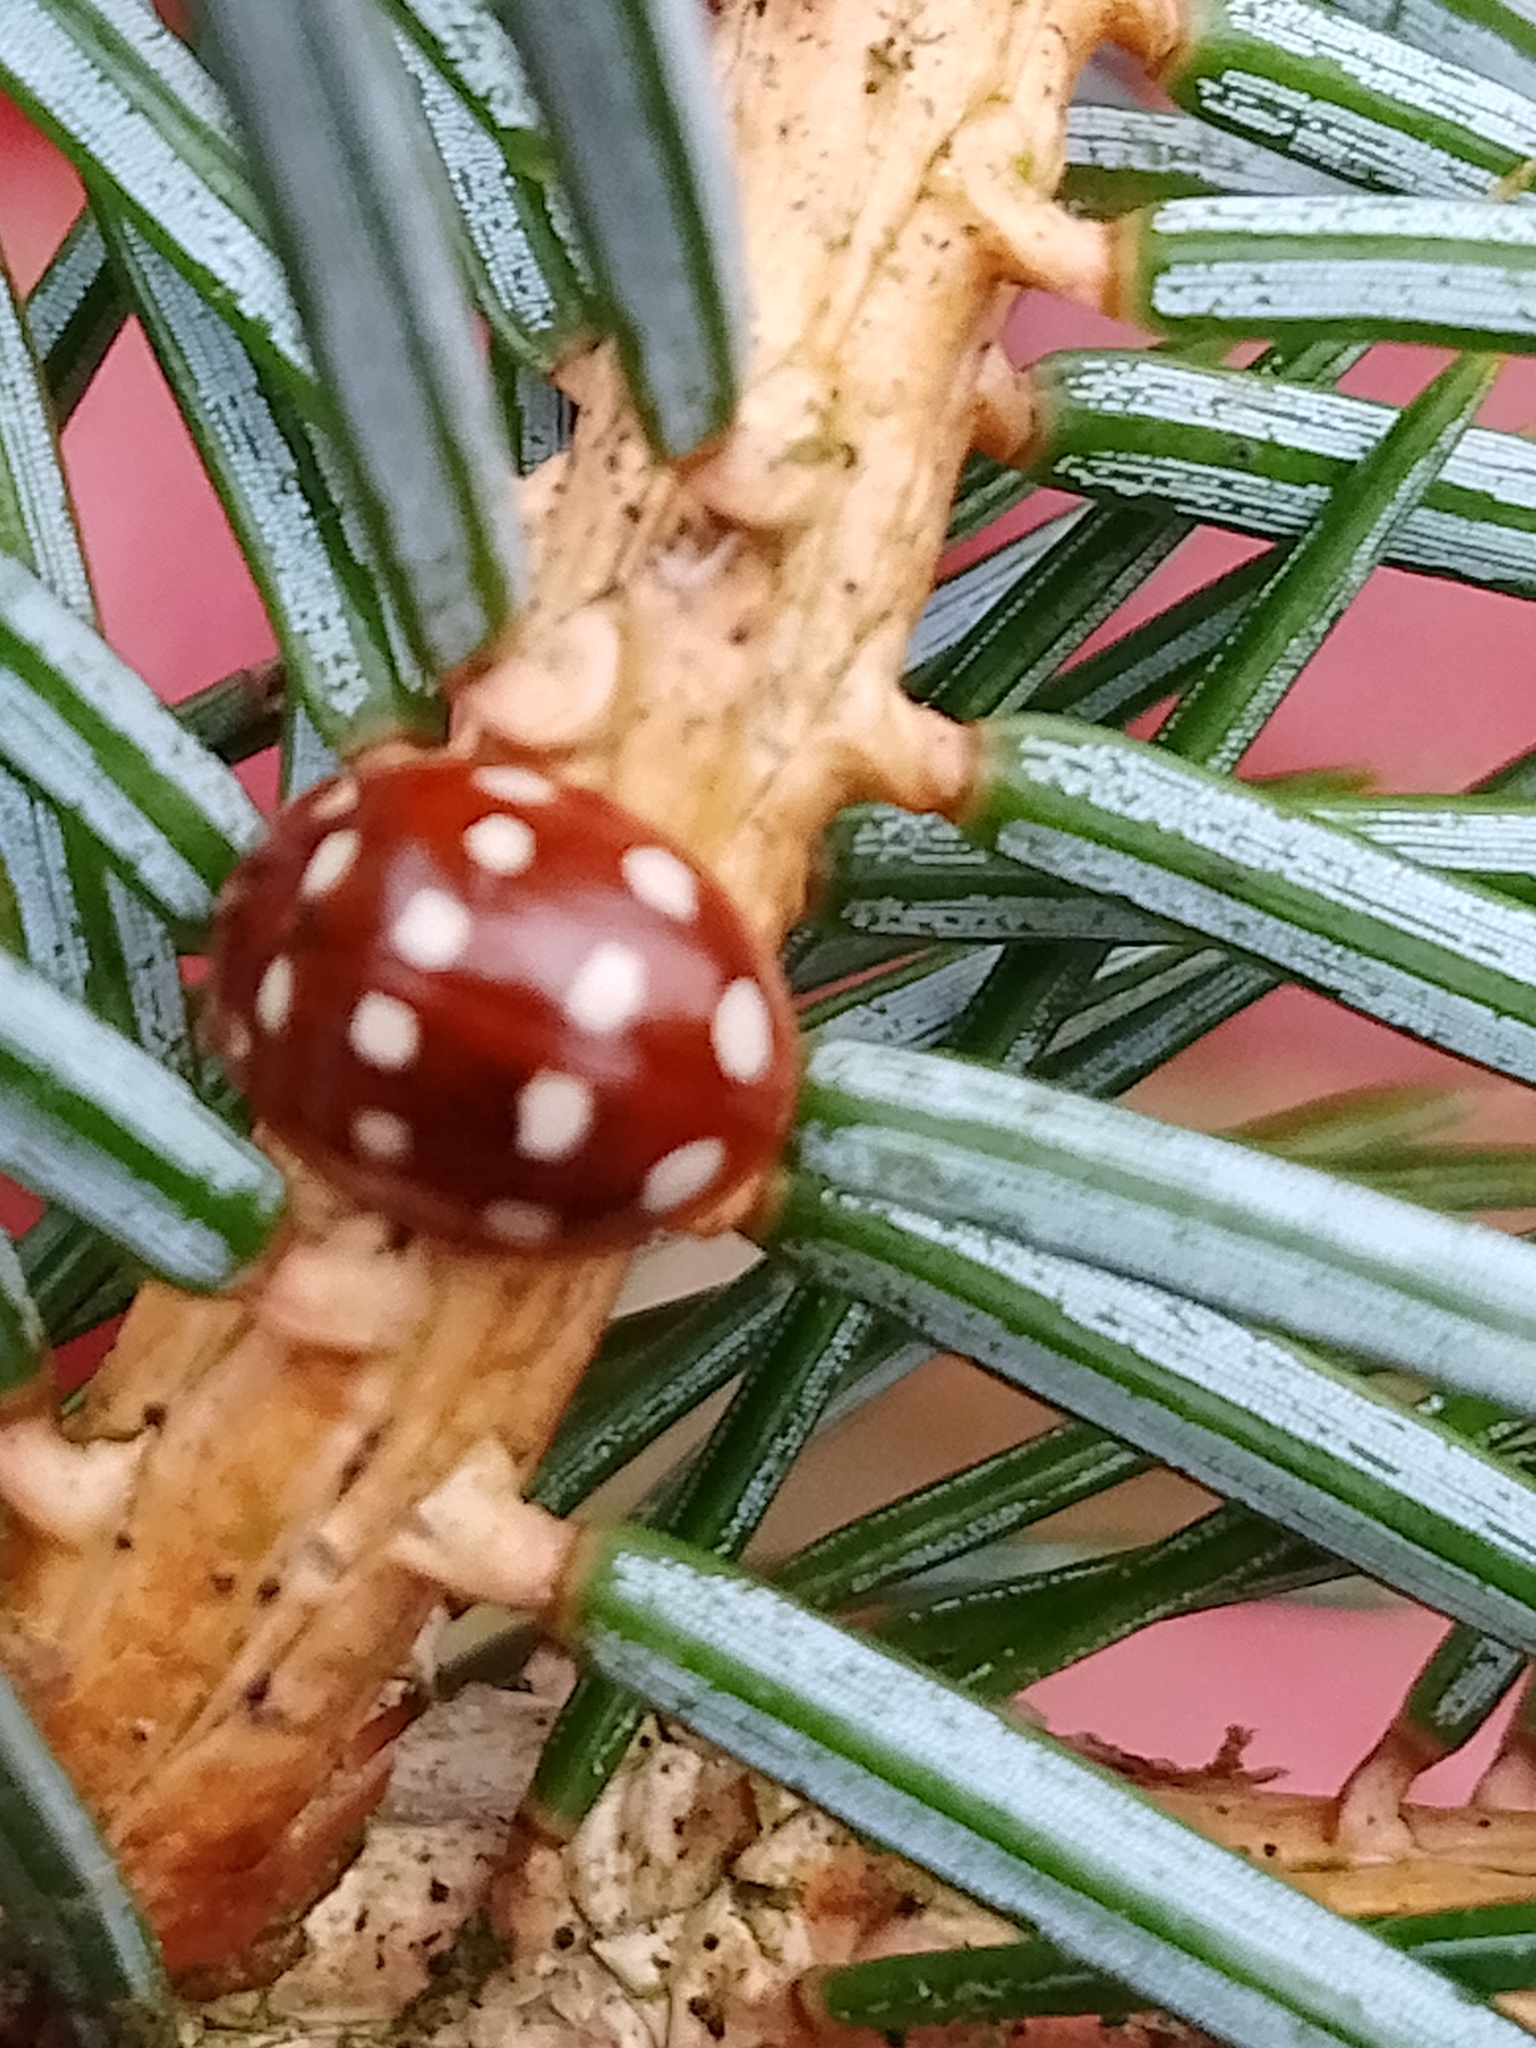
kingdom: Animalia
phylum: Arthropoda
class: Insecta
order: Coleoptera
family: Coccinellidae
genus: Calvia
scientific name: Calvia quatuordecimguttata
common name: Cream-spot ladybird
